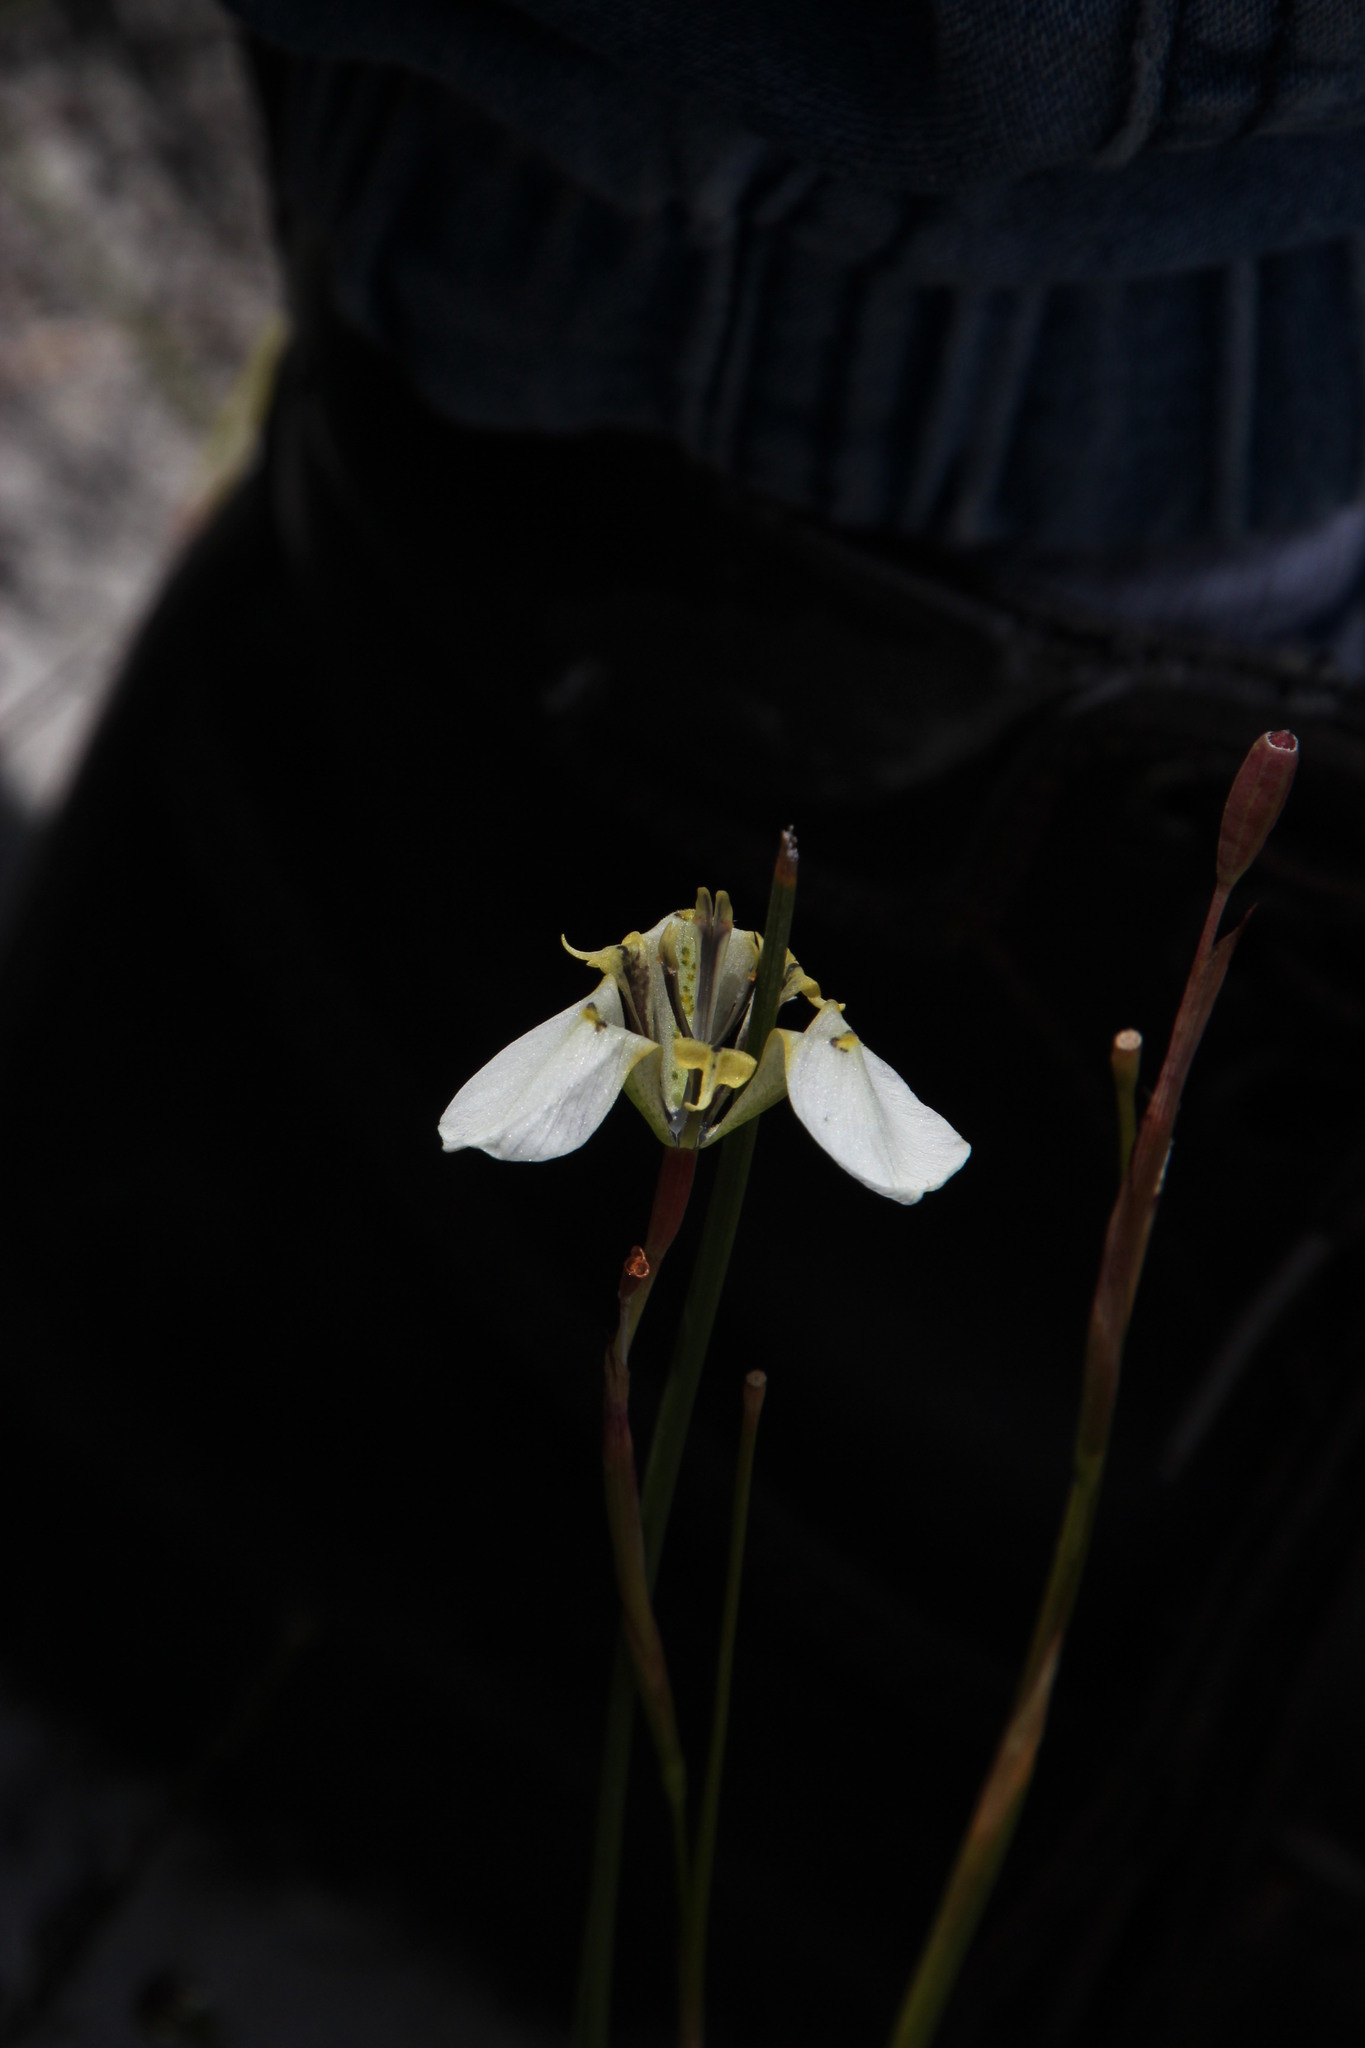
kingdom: Plantae
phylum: Tracheophyta
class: Liliopsida
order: Asparagales
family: Iridaceae
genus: Moraea
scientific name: Moraea lurida
